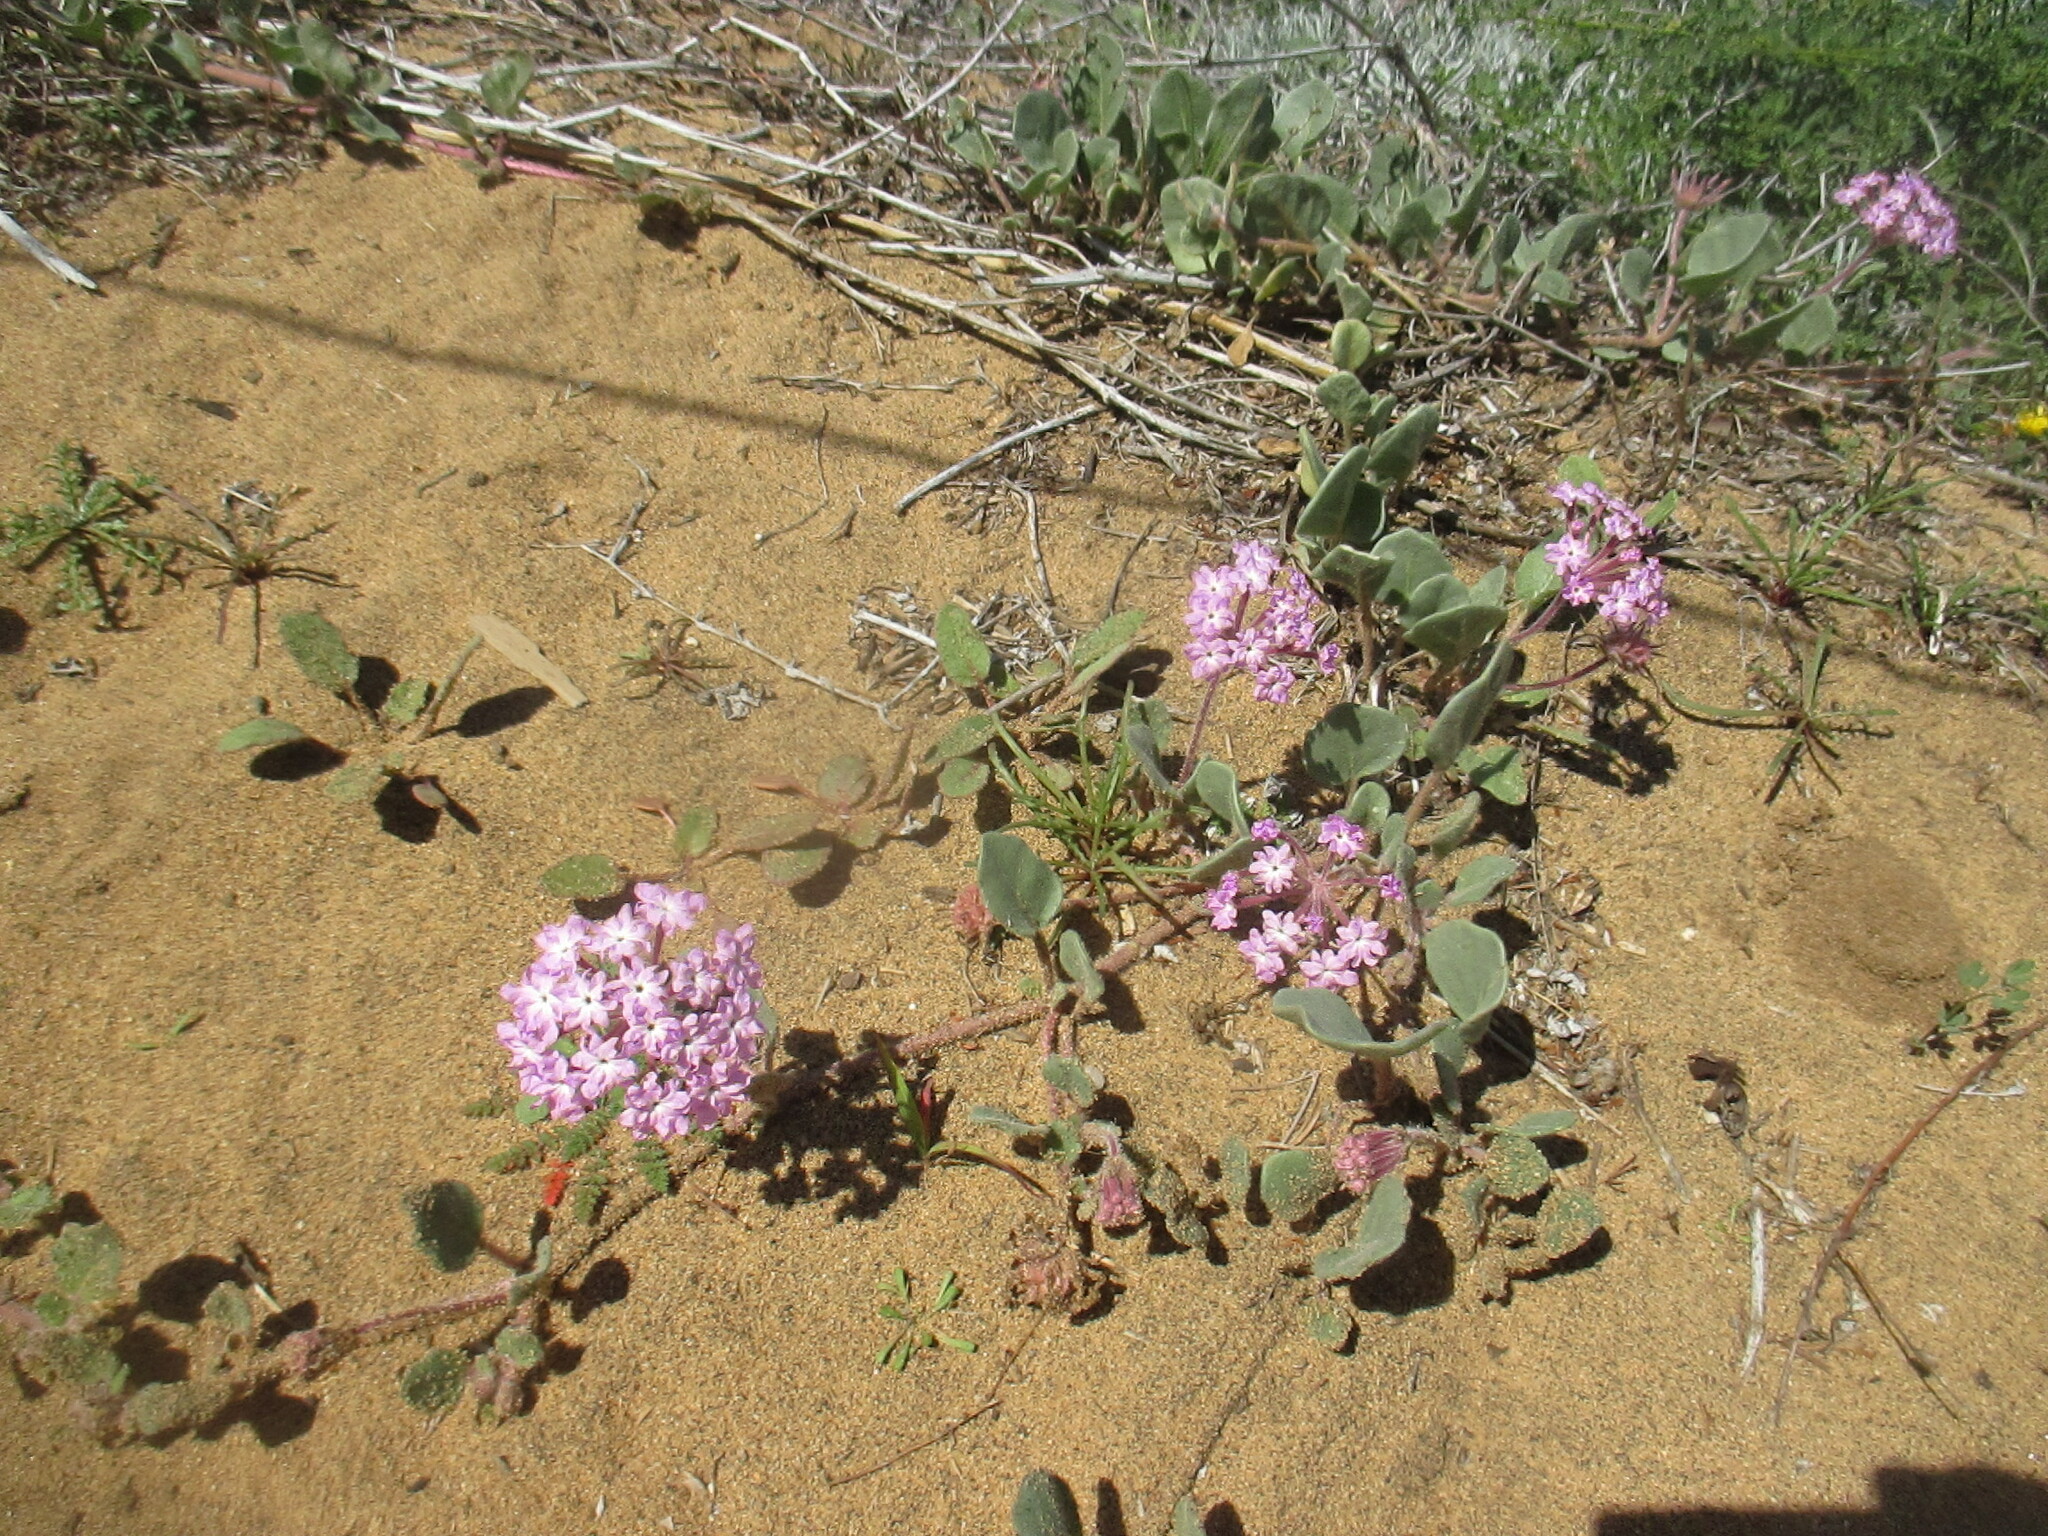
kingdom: Plantae
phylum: Tracheophyta
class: Magnoliopsida
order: Caryophyllales
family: Nyctaginaceae
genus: Abronia
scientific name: Abronia umbellata
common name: Sand-verbena
